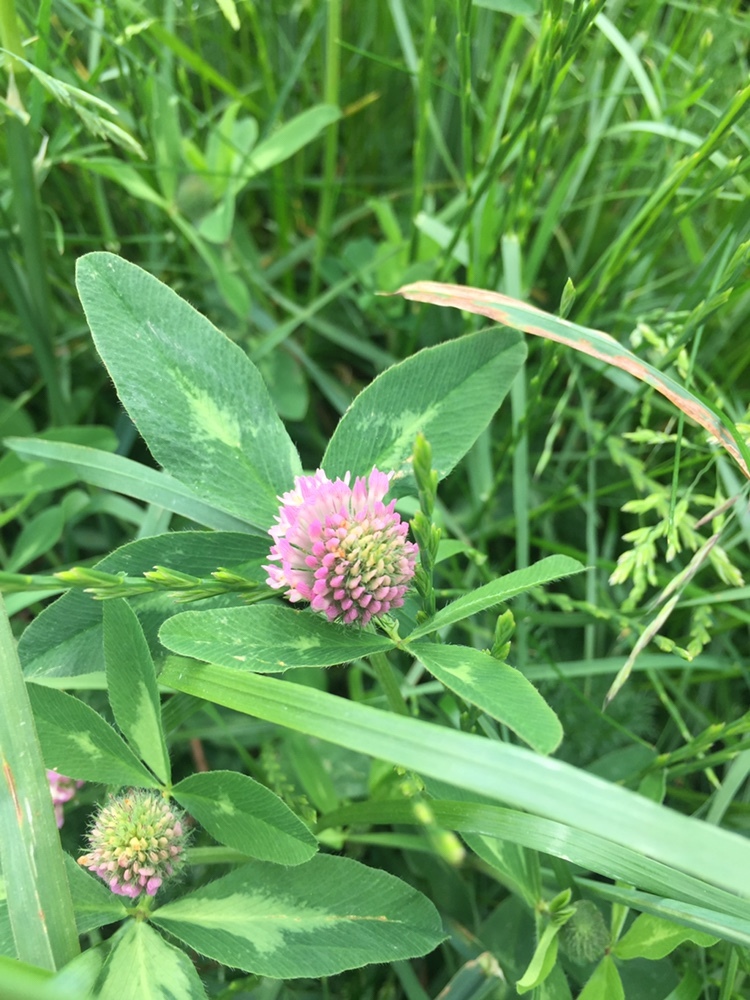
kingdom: Plantae
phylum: Tracheophyta
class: Magnoliopsida
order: Fabales
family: Fabaceae
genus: Trifolium
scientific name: Trifolium pratense
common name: Red clover
